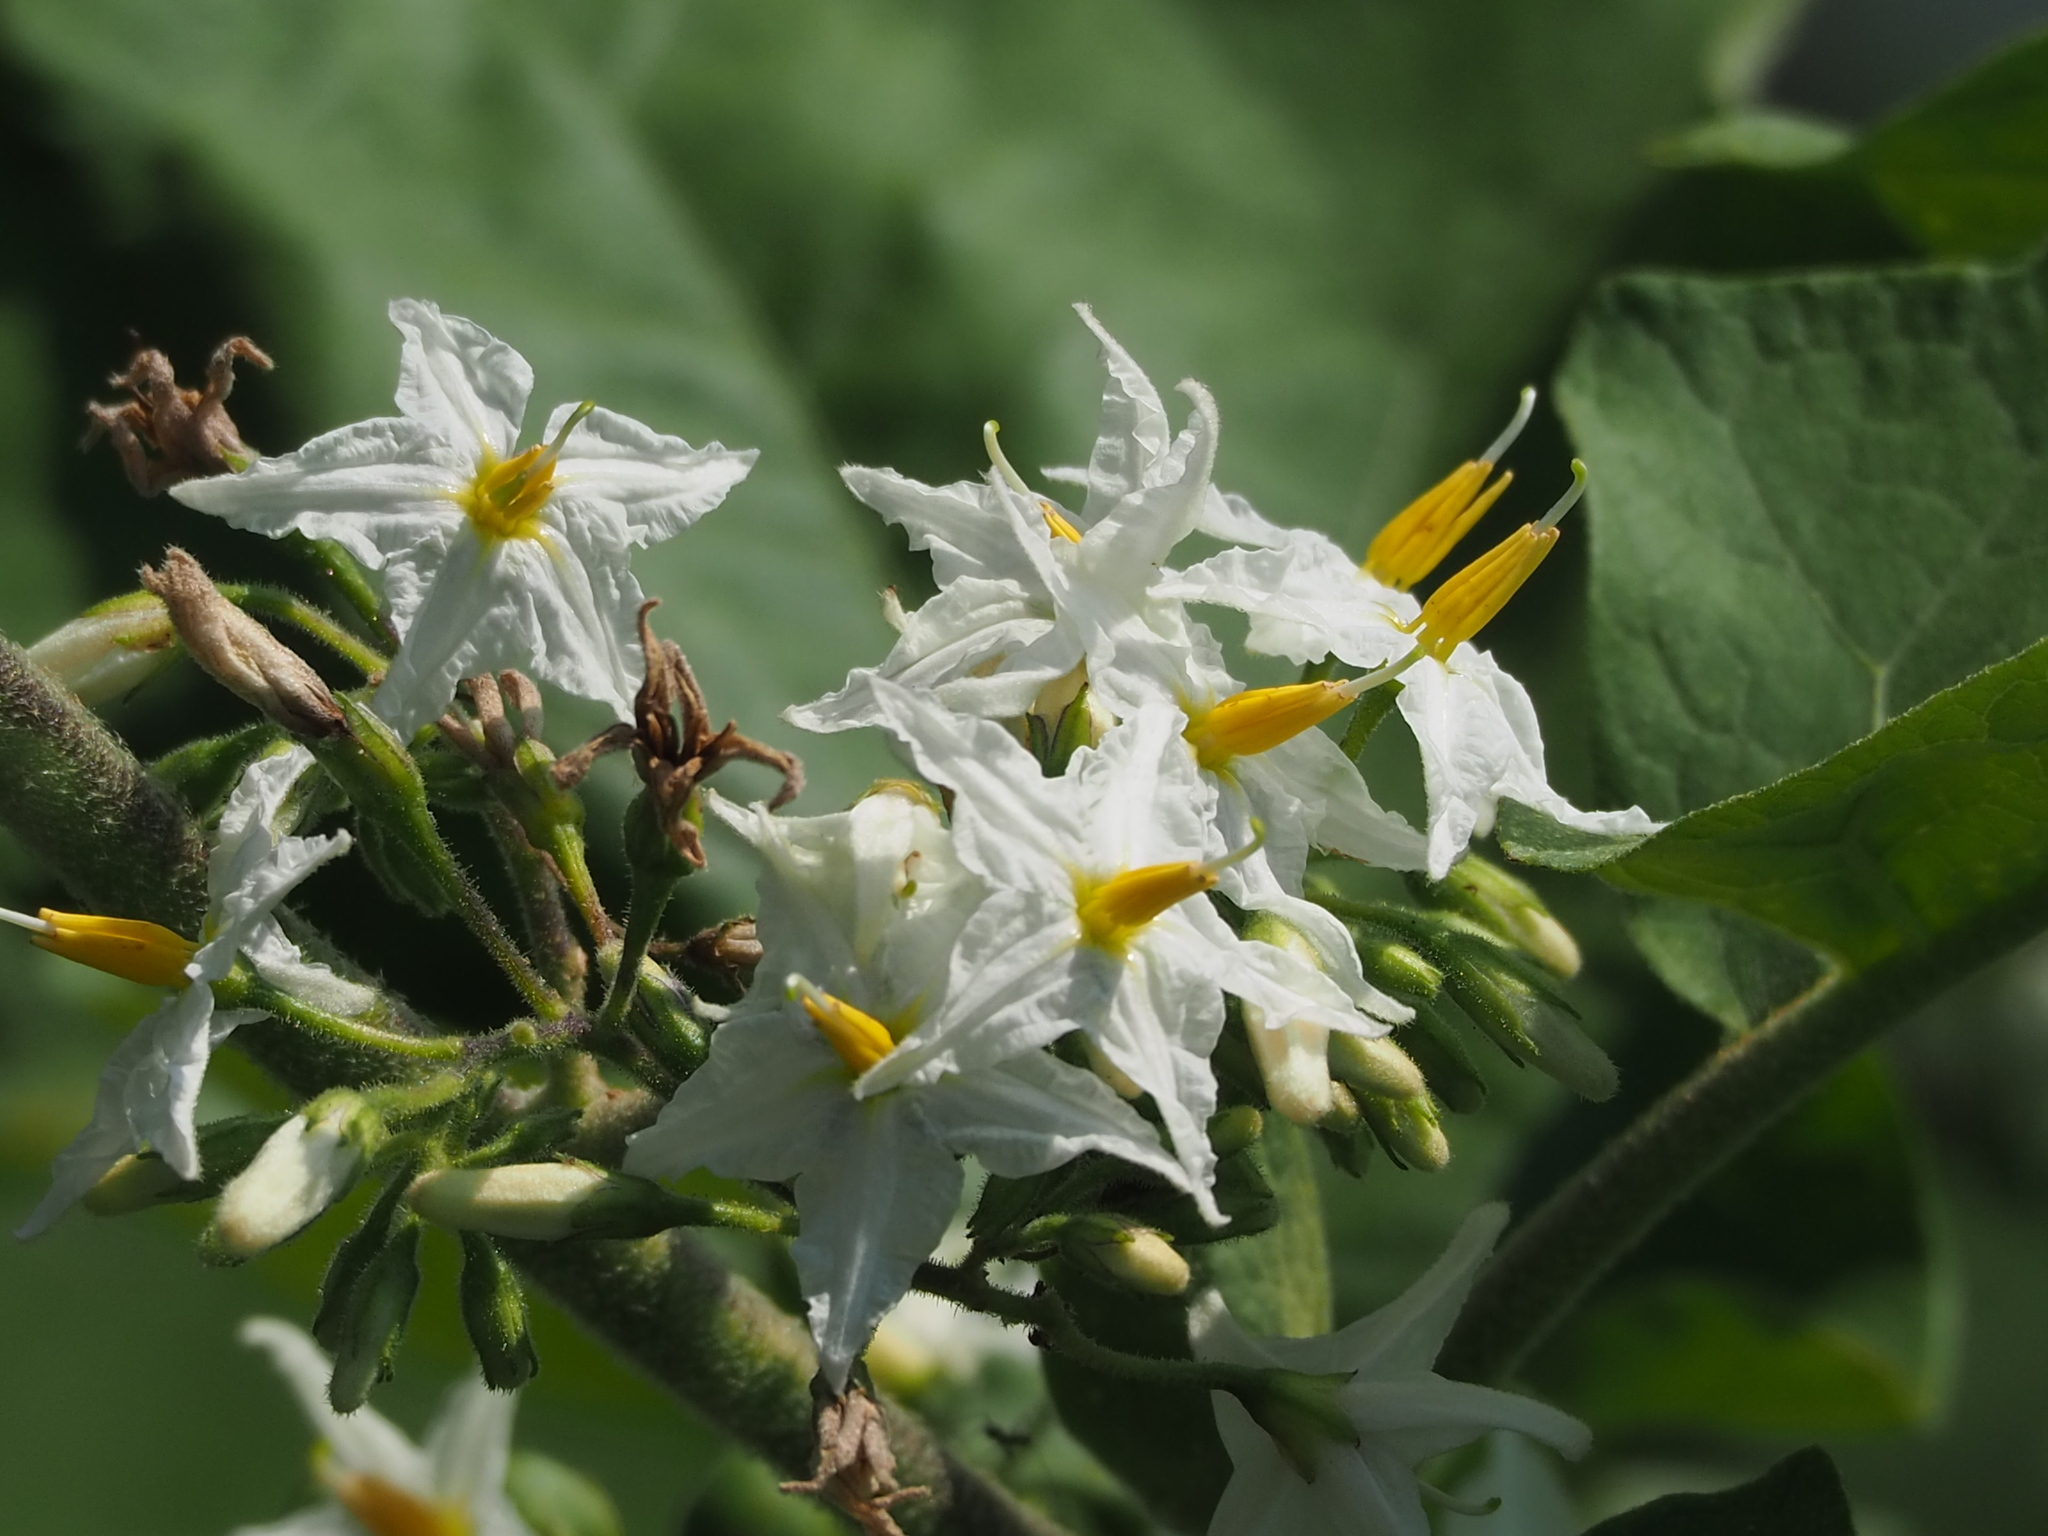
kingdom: Plantae
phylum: Tracheophyta
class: Magnoliopsida
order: Solanales
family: Solanaceae
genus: Solanum
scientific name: Solanum torvum
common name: Turkey berry
